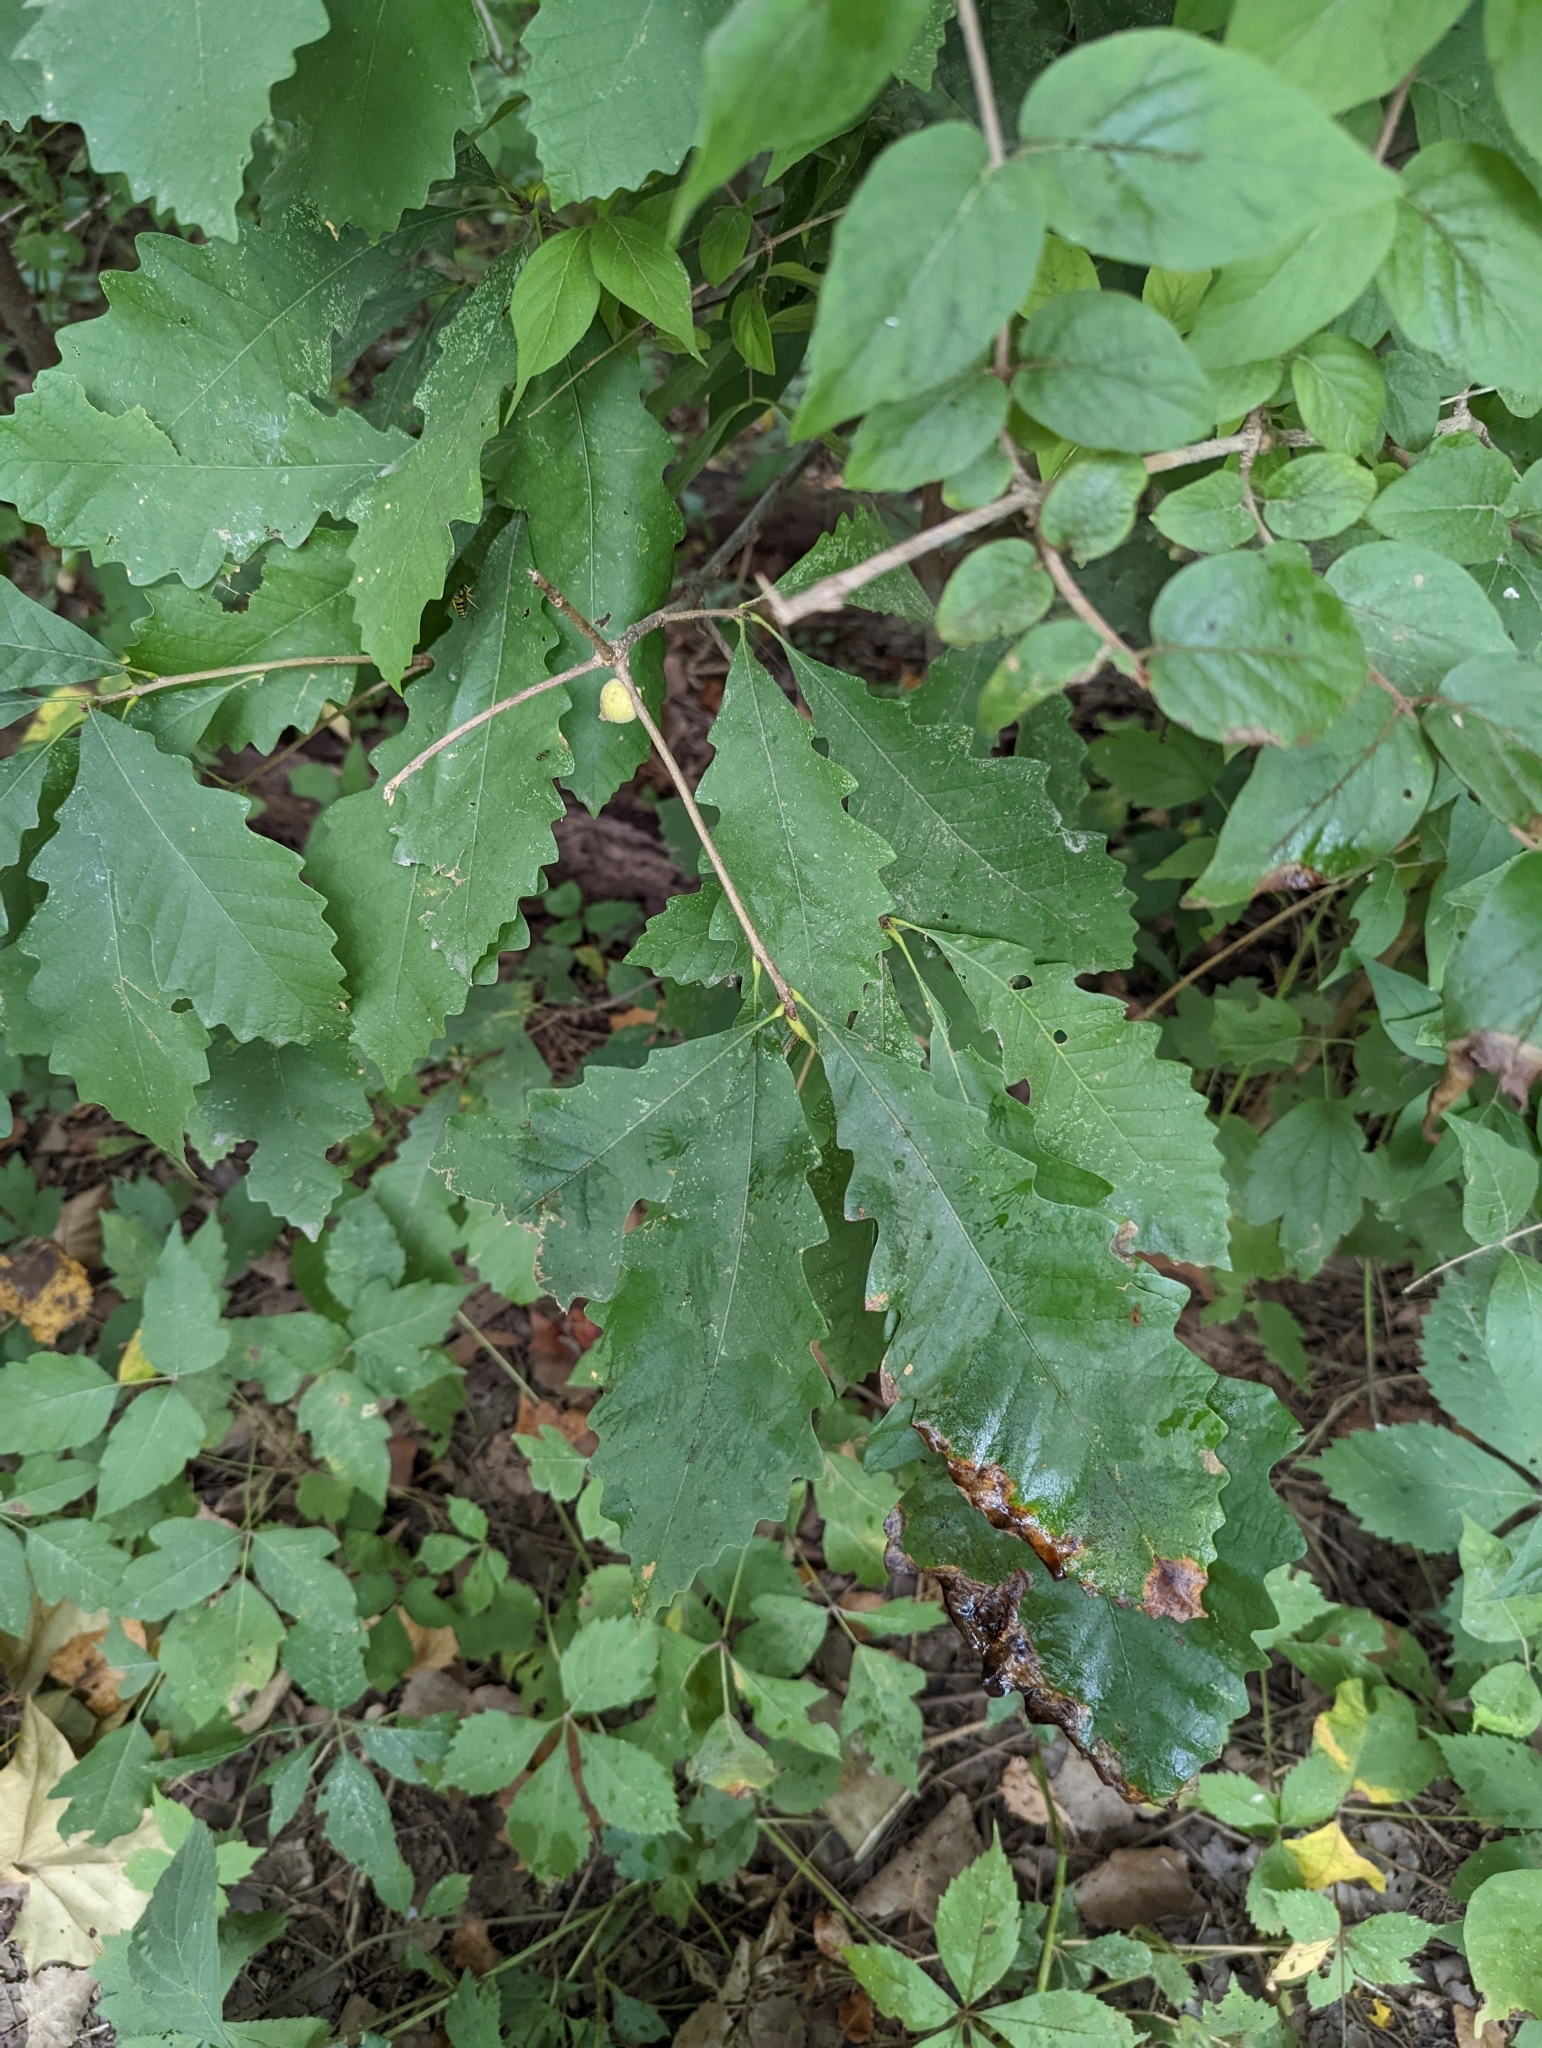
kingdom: Animalia
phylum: Arthropoda
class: Insecta
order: Hymenoptera
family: Cynipidae
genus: Disholcaspis
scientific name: Disholcaspis
